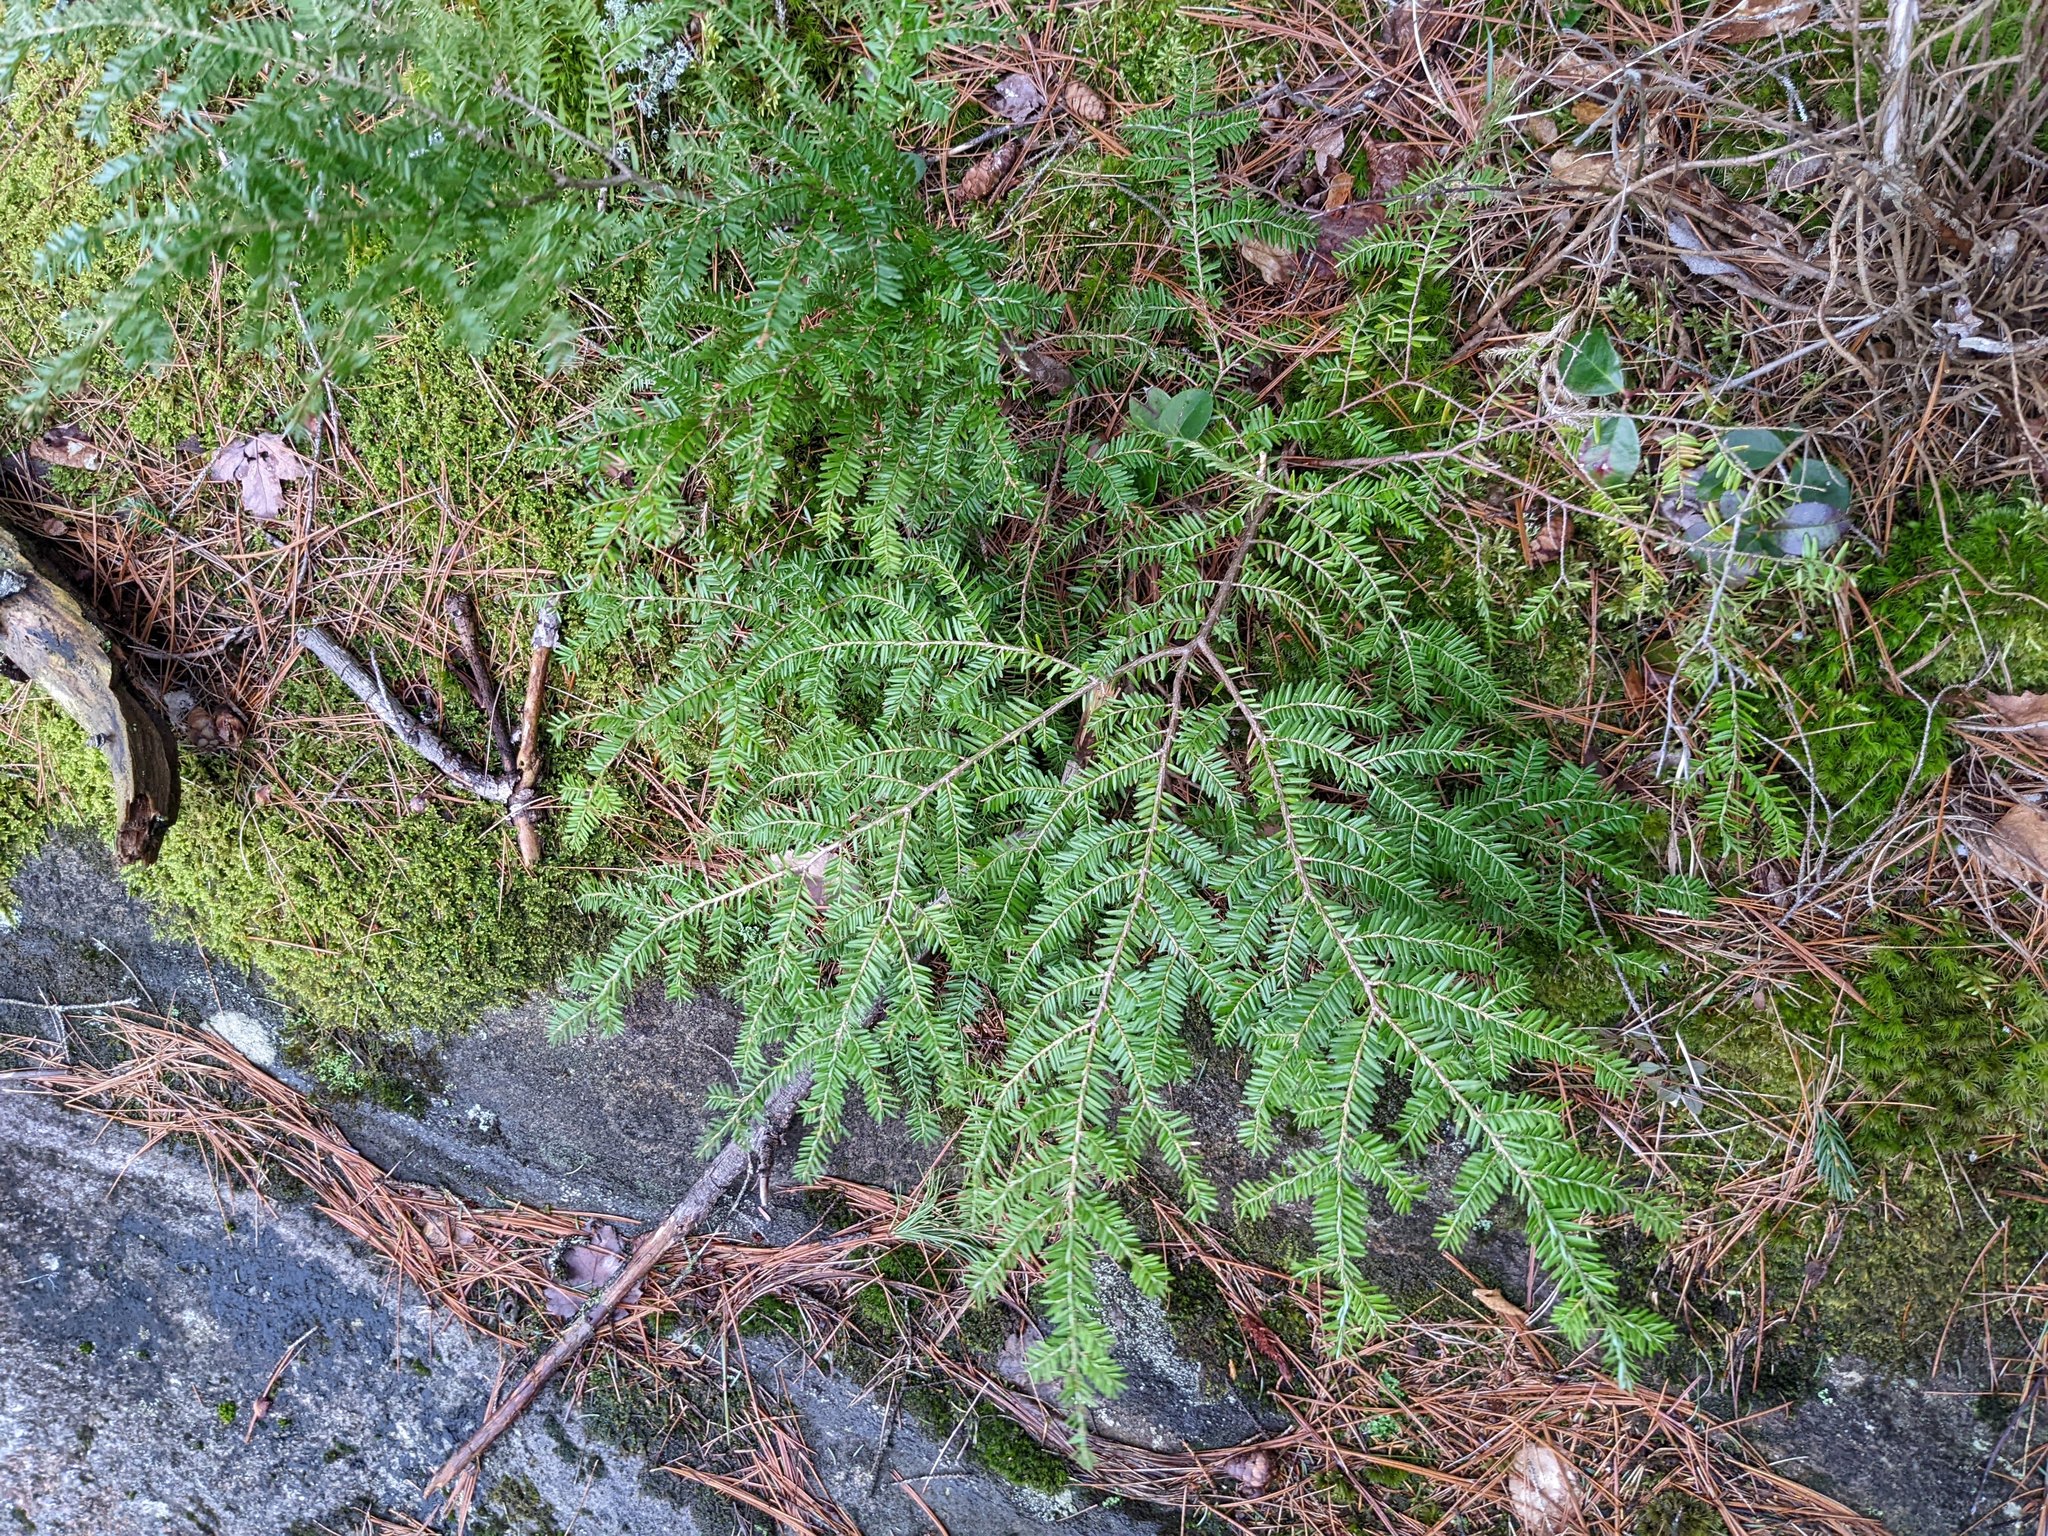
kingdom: Plantae
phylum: Tracheophyta
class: Pinopsida
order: Pinales
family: Pinaceae
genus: Tsuga
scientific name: Tsuga canadensis
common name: Eastern hemlock
